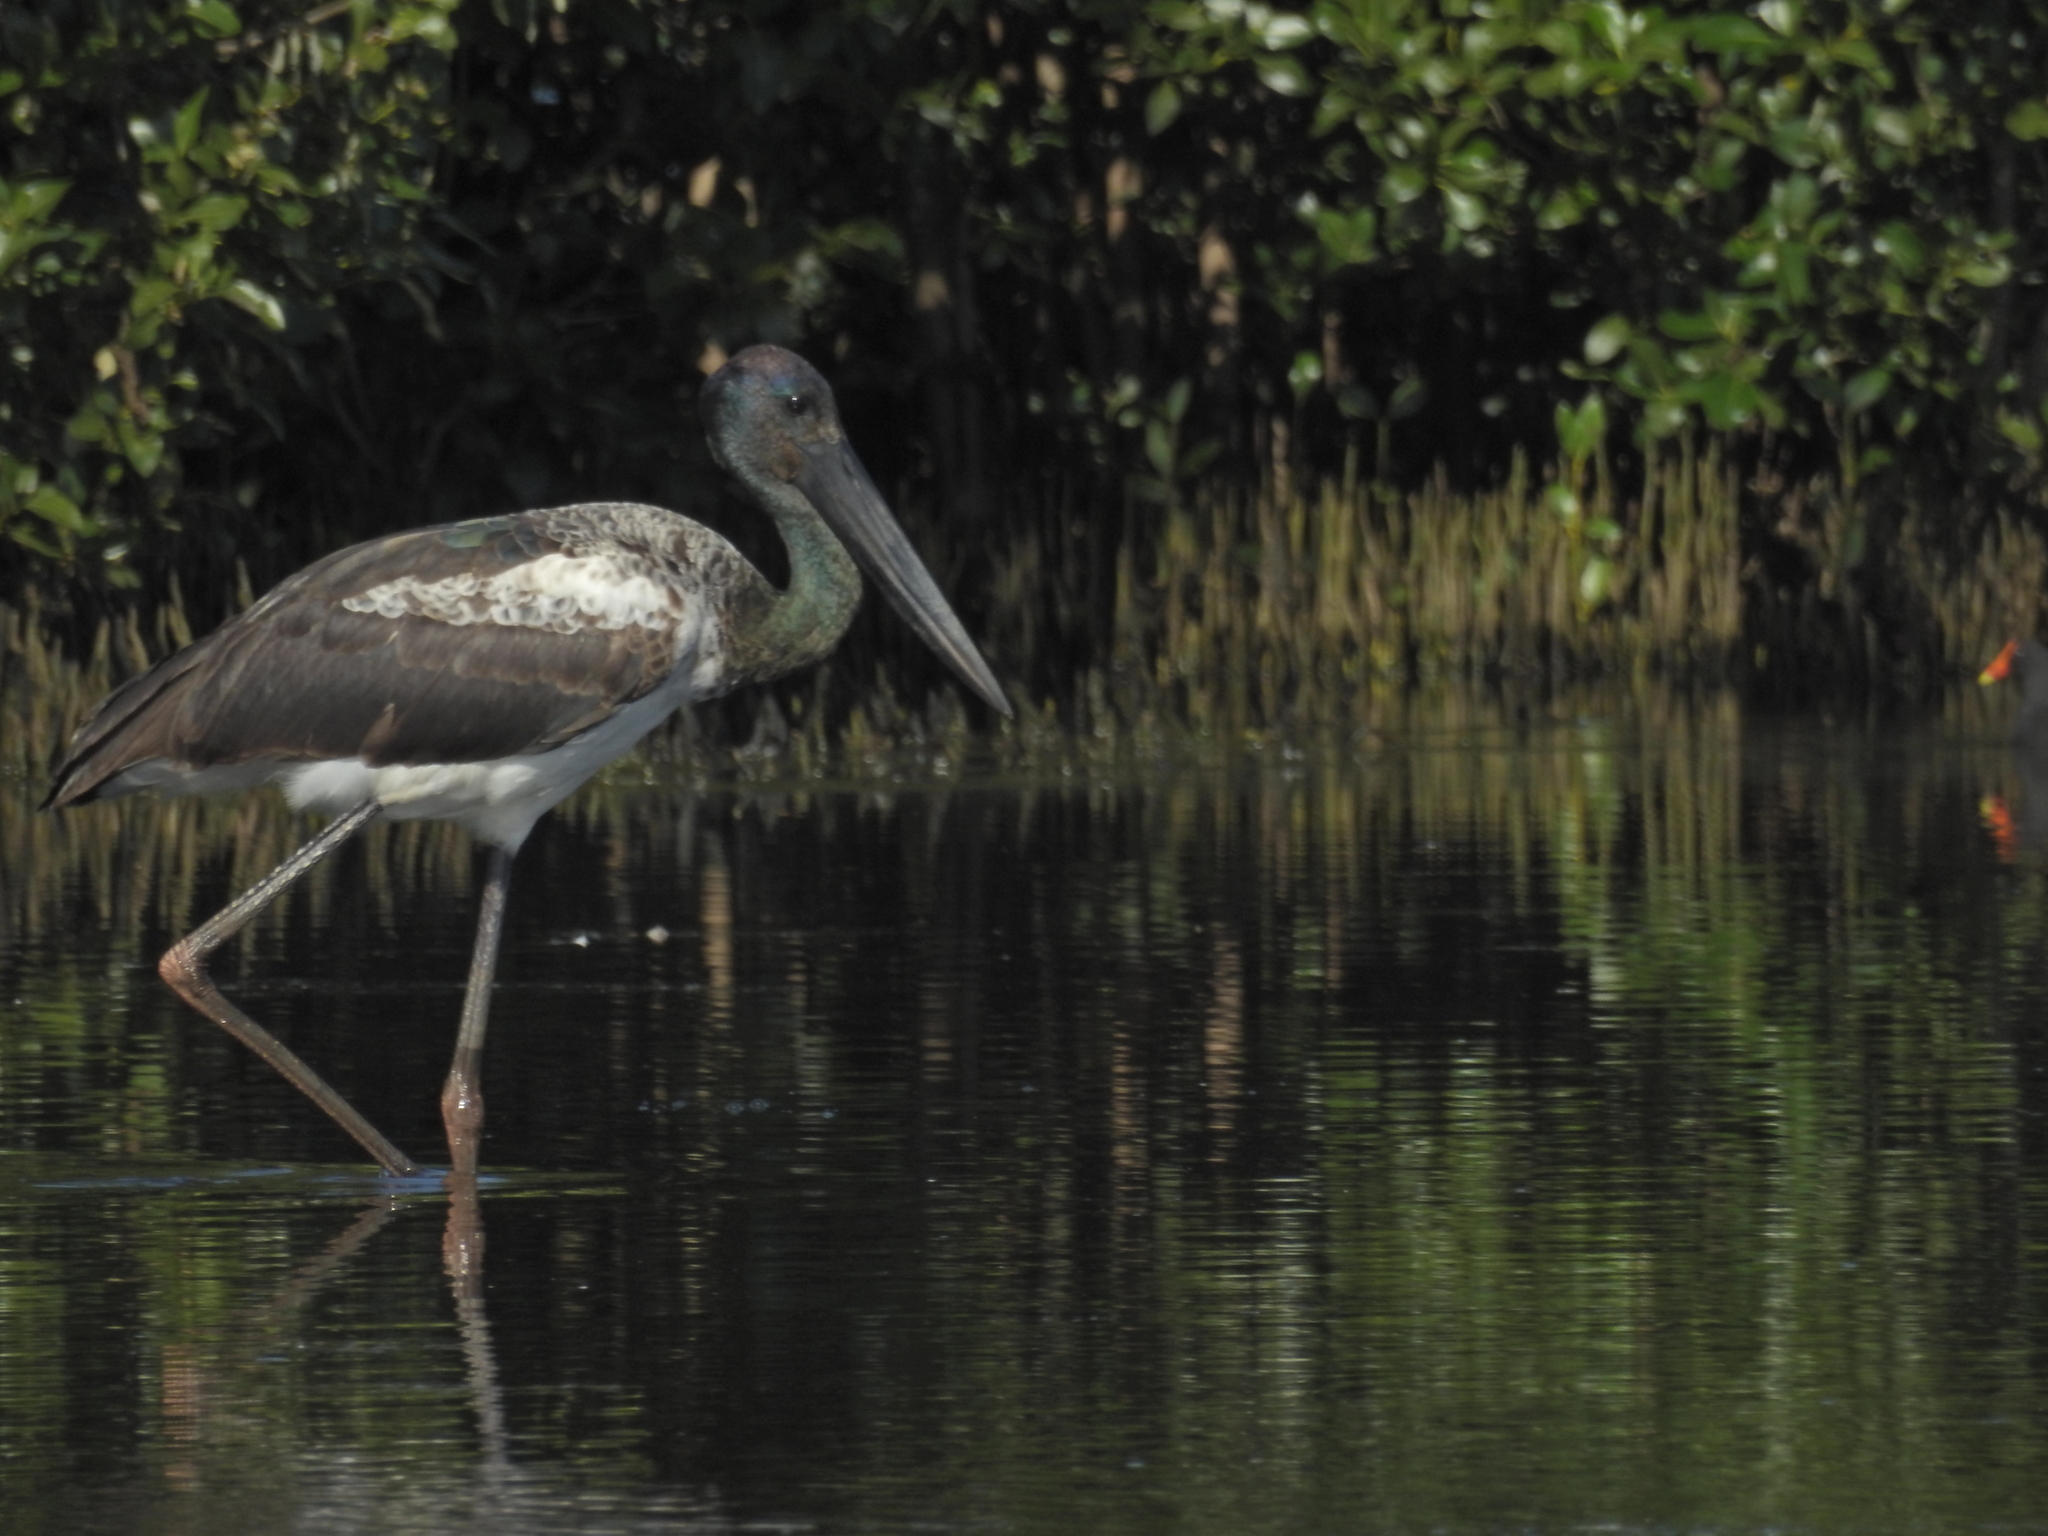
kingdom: Animalia
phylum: Chordata
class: Aves
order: Ciconiiformes
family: Ciconiidae
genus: Ephippiorhynchus
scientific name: Ephippiorhynchus asiaticus
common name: Black-necked stork
